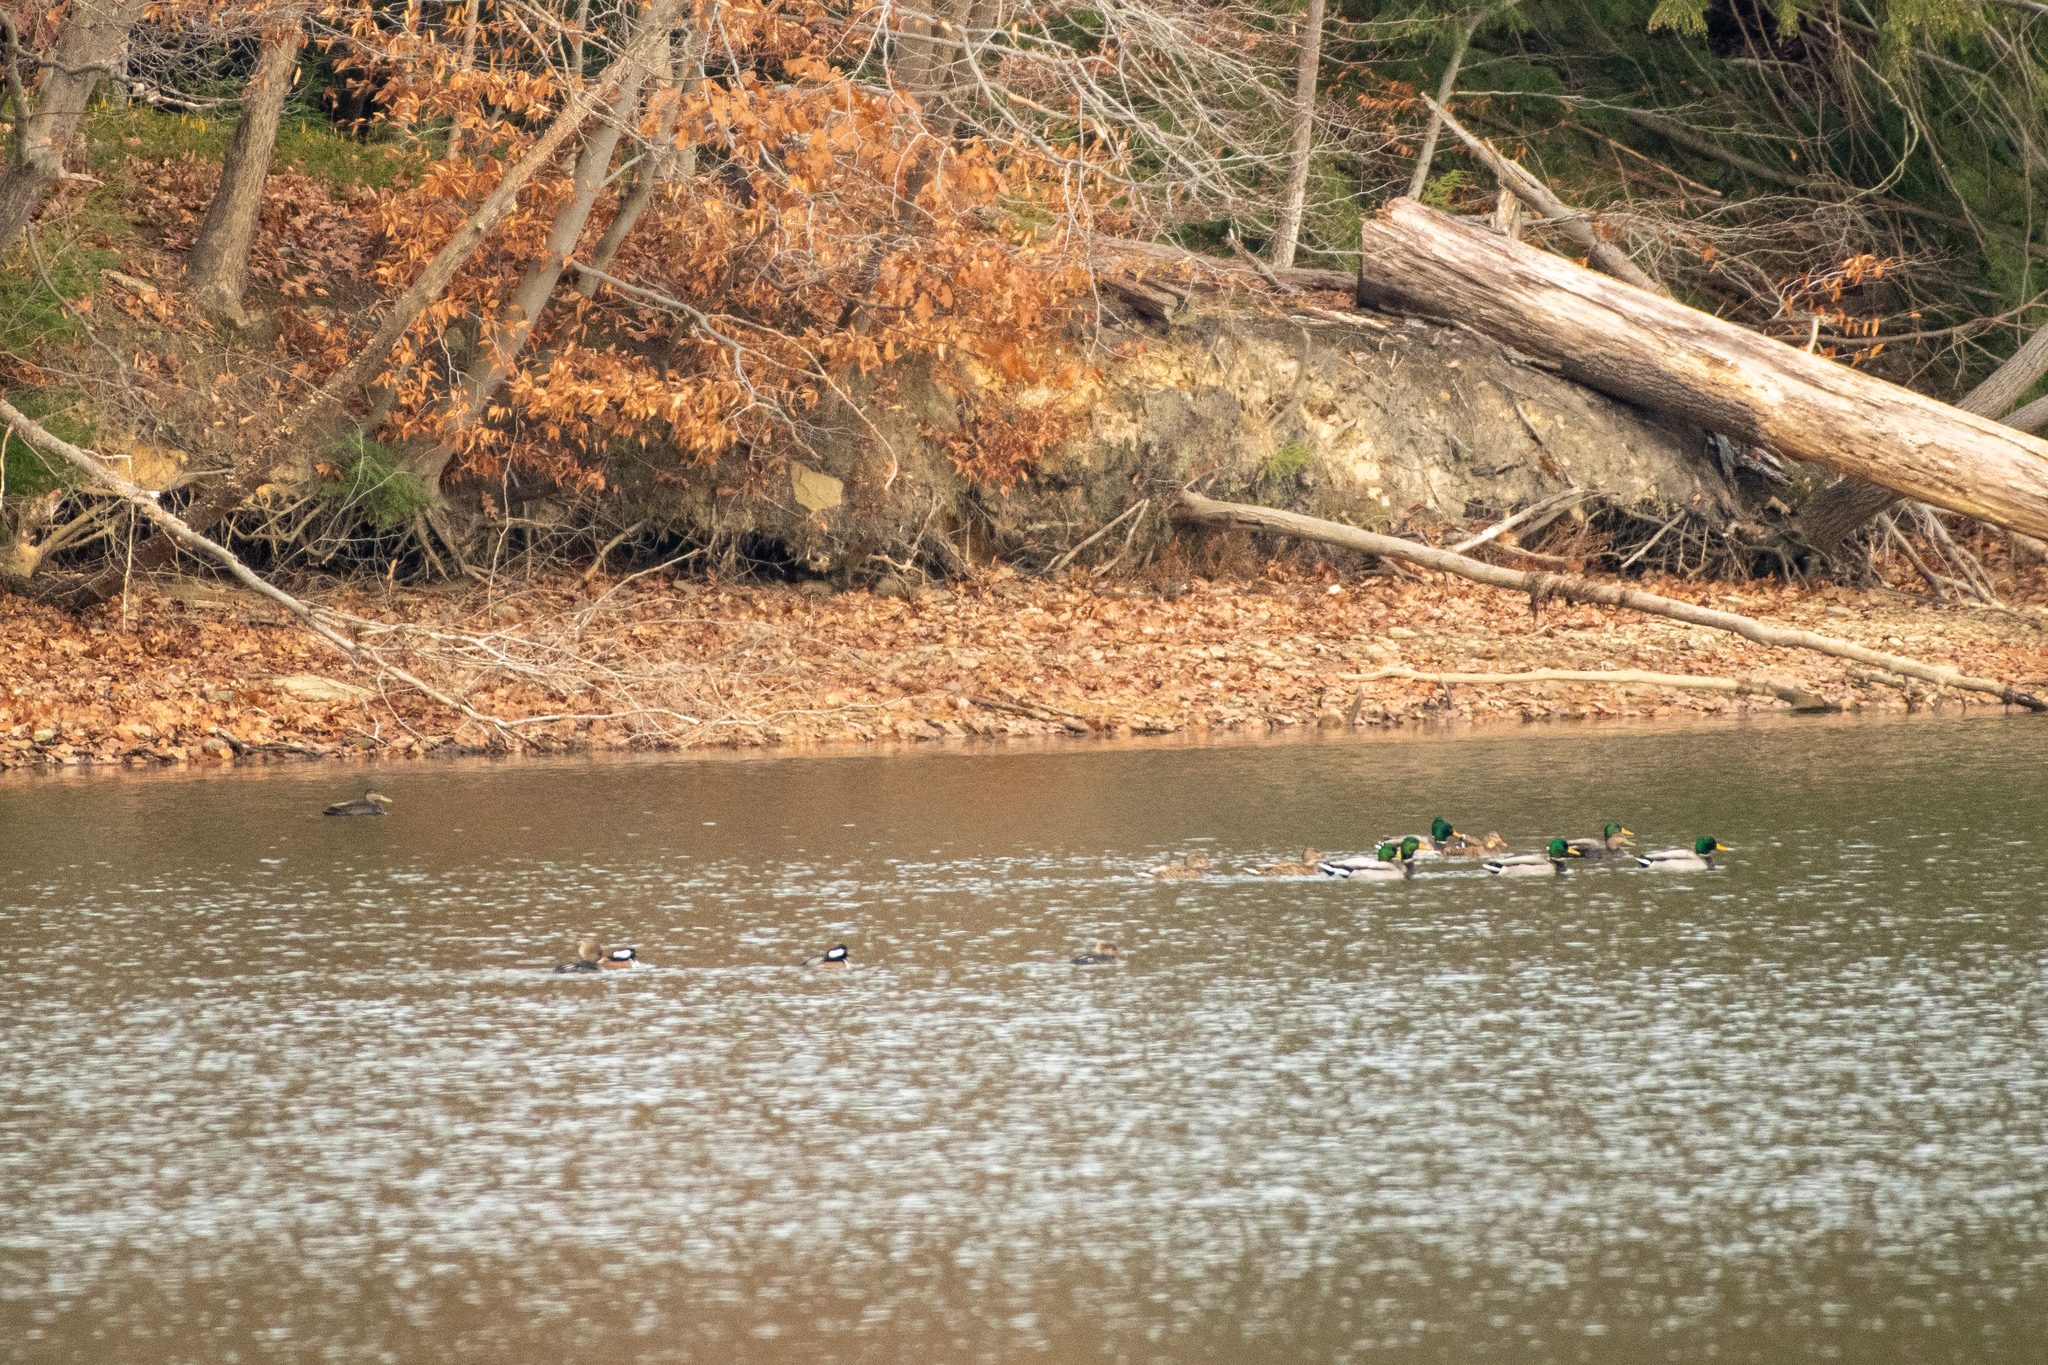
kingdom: Animalia
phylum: Chordata
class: Aves
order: Anseriformes
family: Anatidae
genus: Anas
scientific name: Anas platyrhynchos
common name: Mallard
